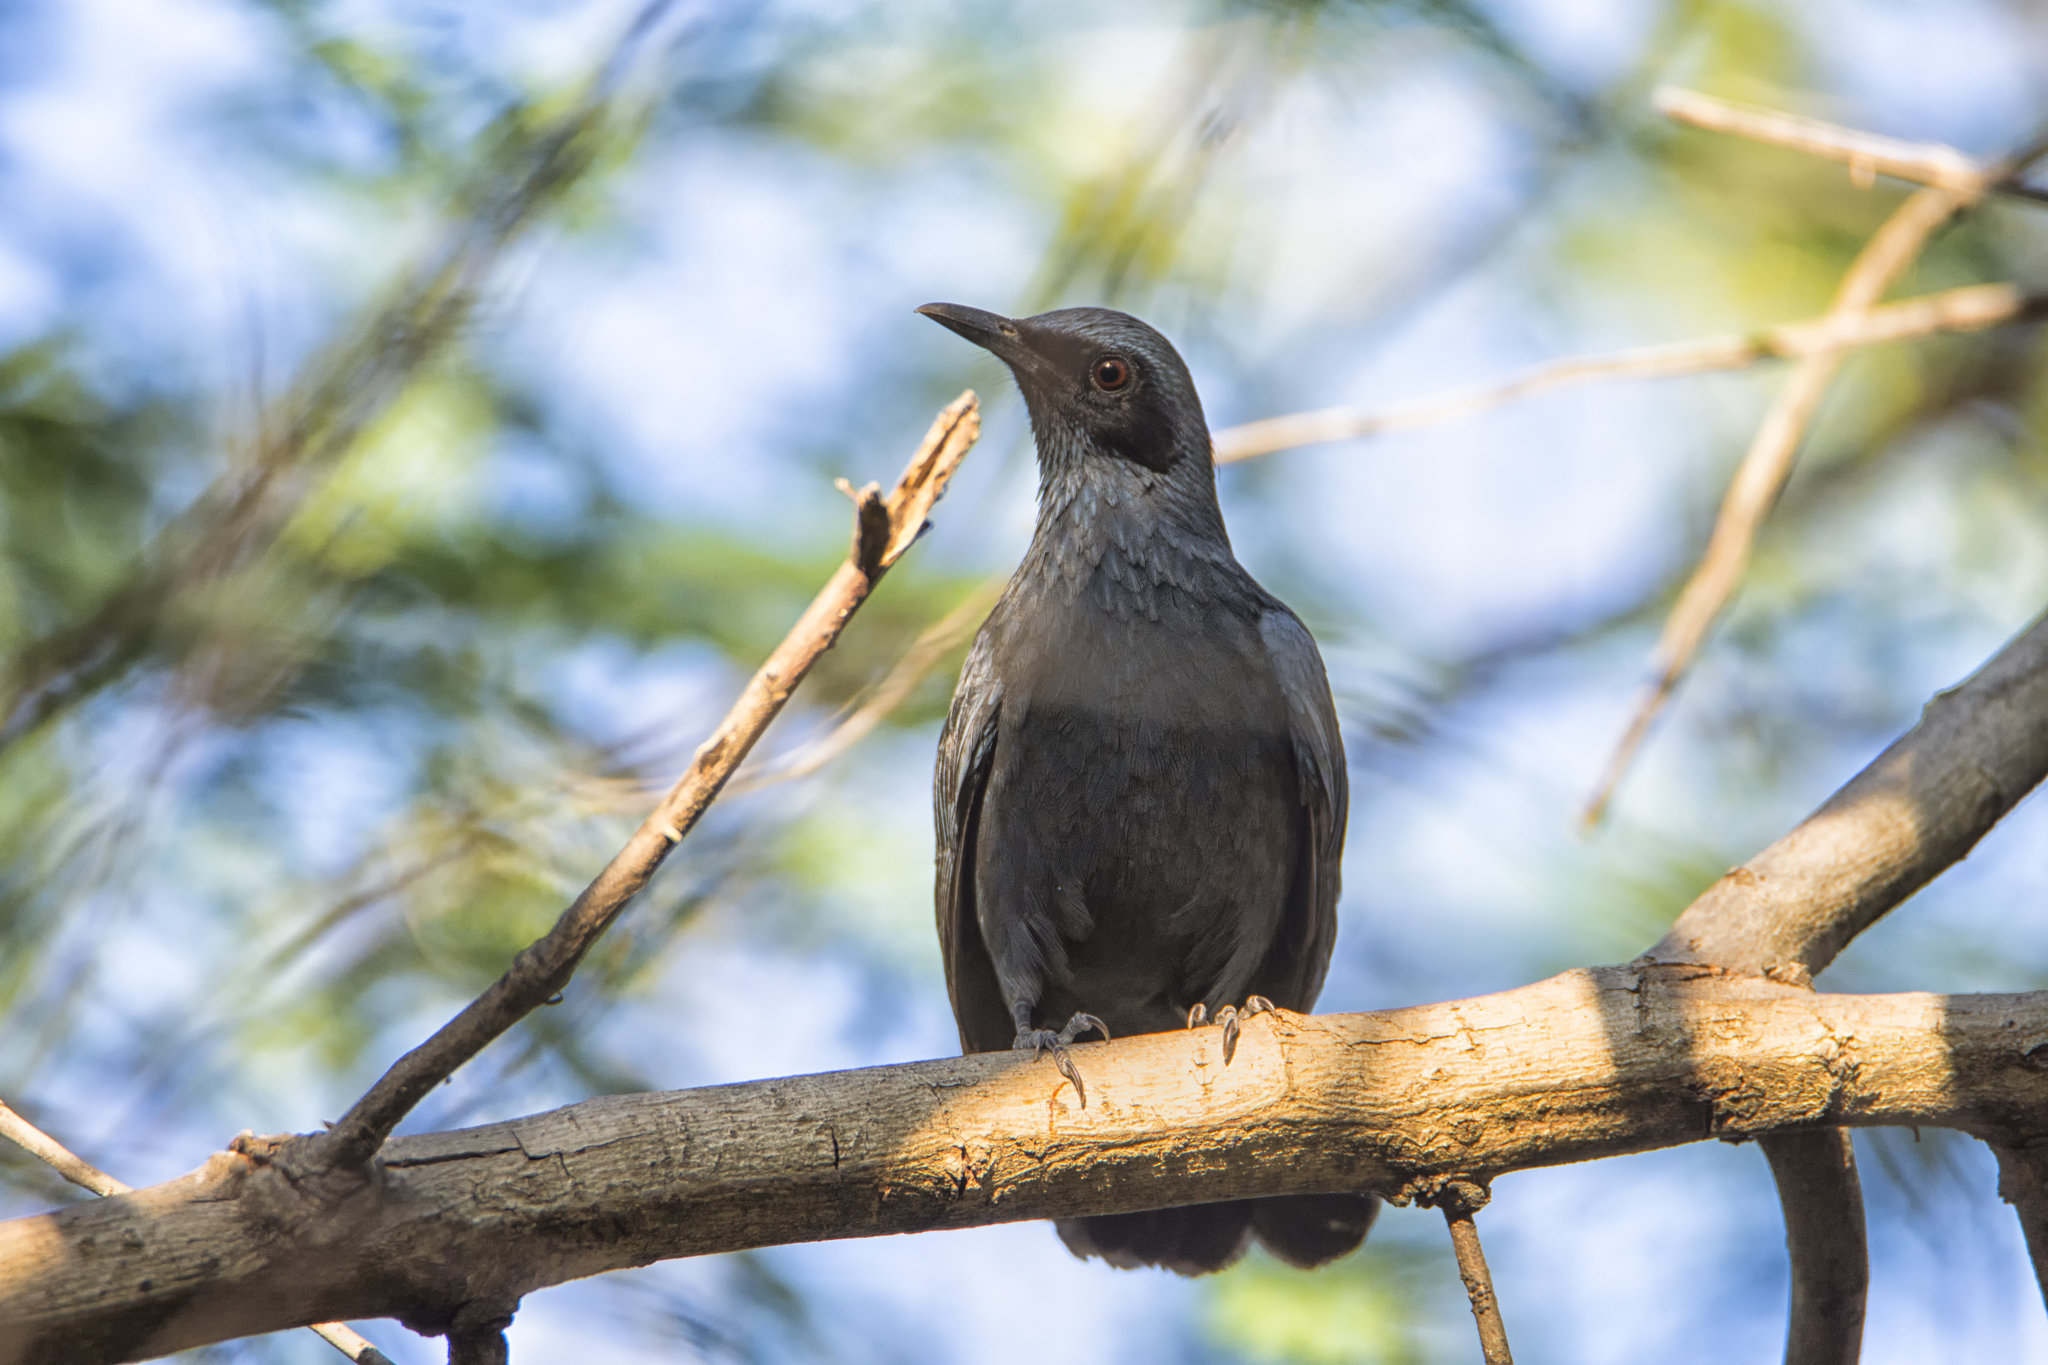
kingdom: Animalia
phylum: Chordata
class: Aves
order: Passeriformes
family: Mimidae
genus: Melanotis
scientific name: Melanotis caerulescens
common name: Blue mockingbird
